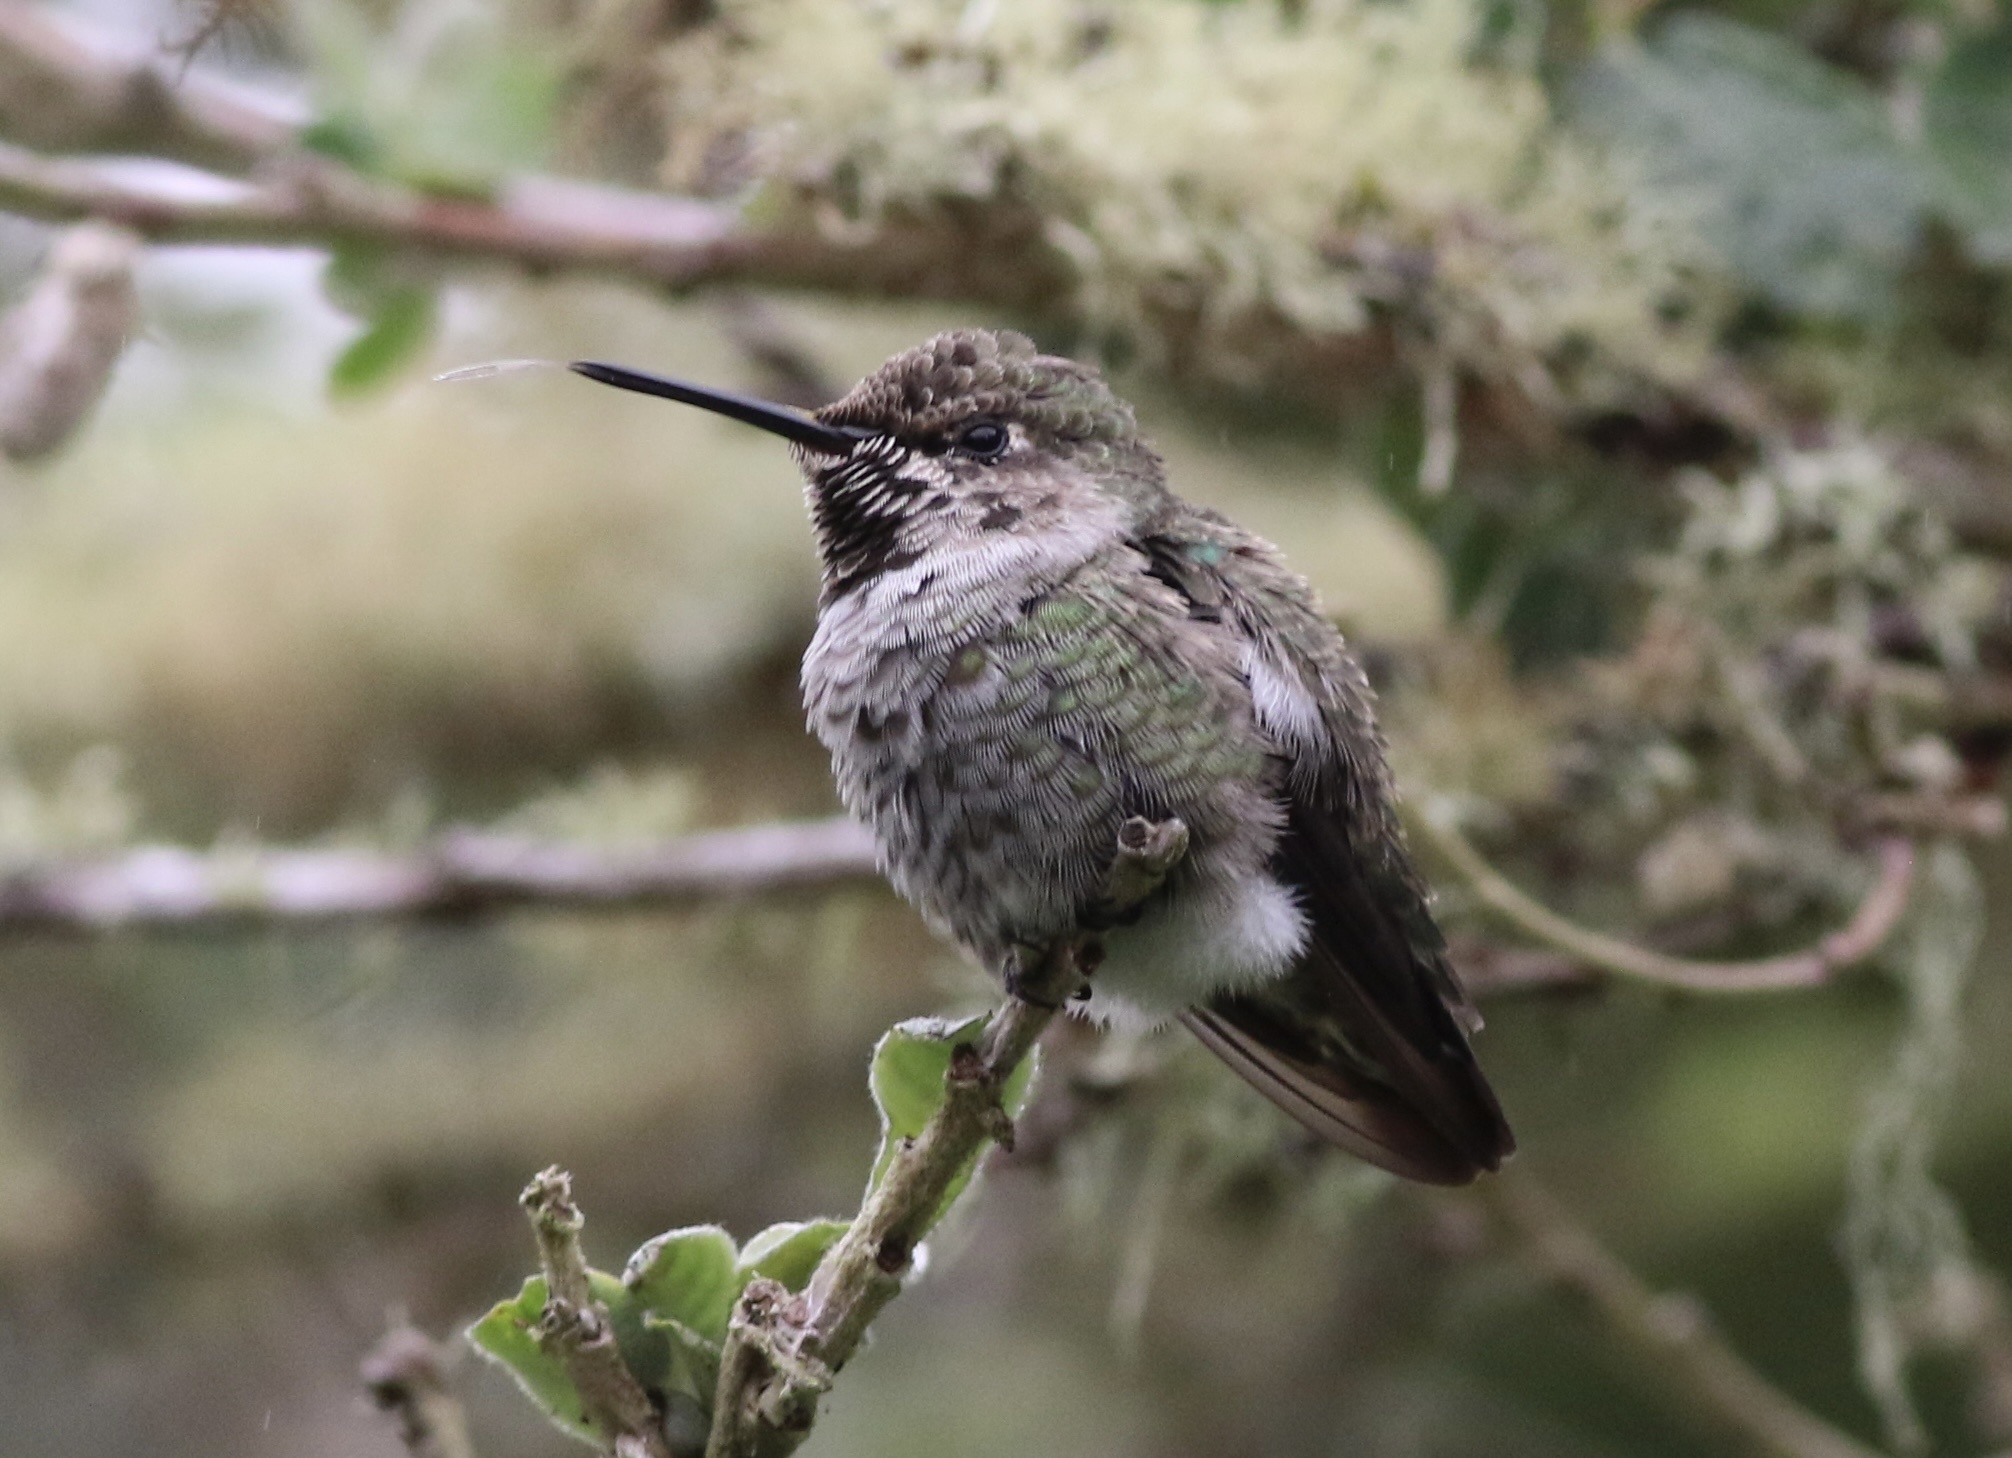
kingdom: Animalia
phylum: Chordata
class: Aves
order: Apodiformes
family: Trochilidae
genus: Calypte
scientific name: Calypte anna
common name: Anna's hummingbird
